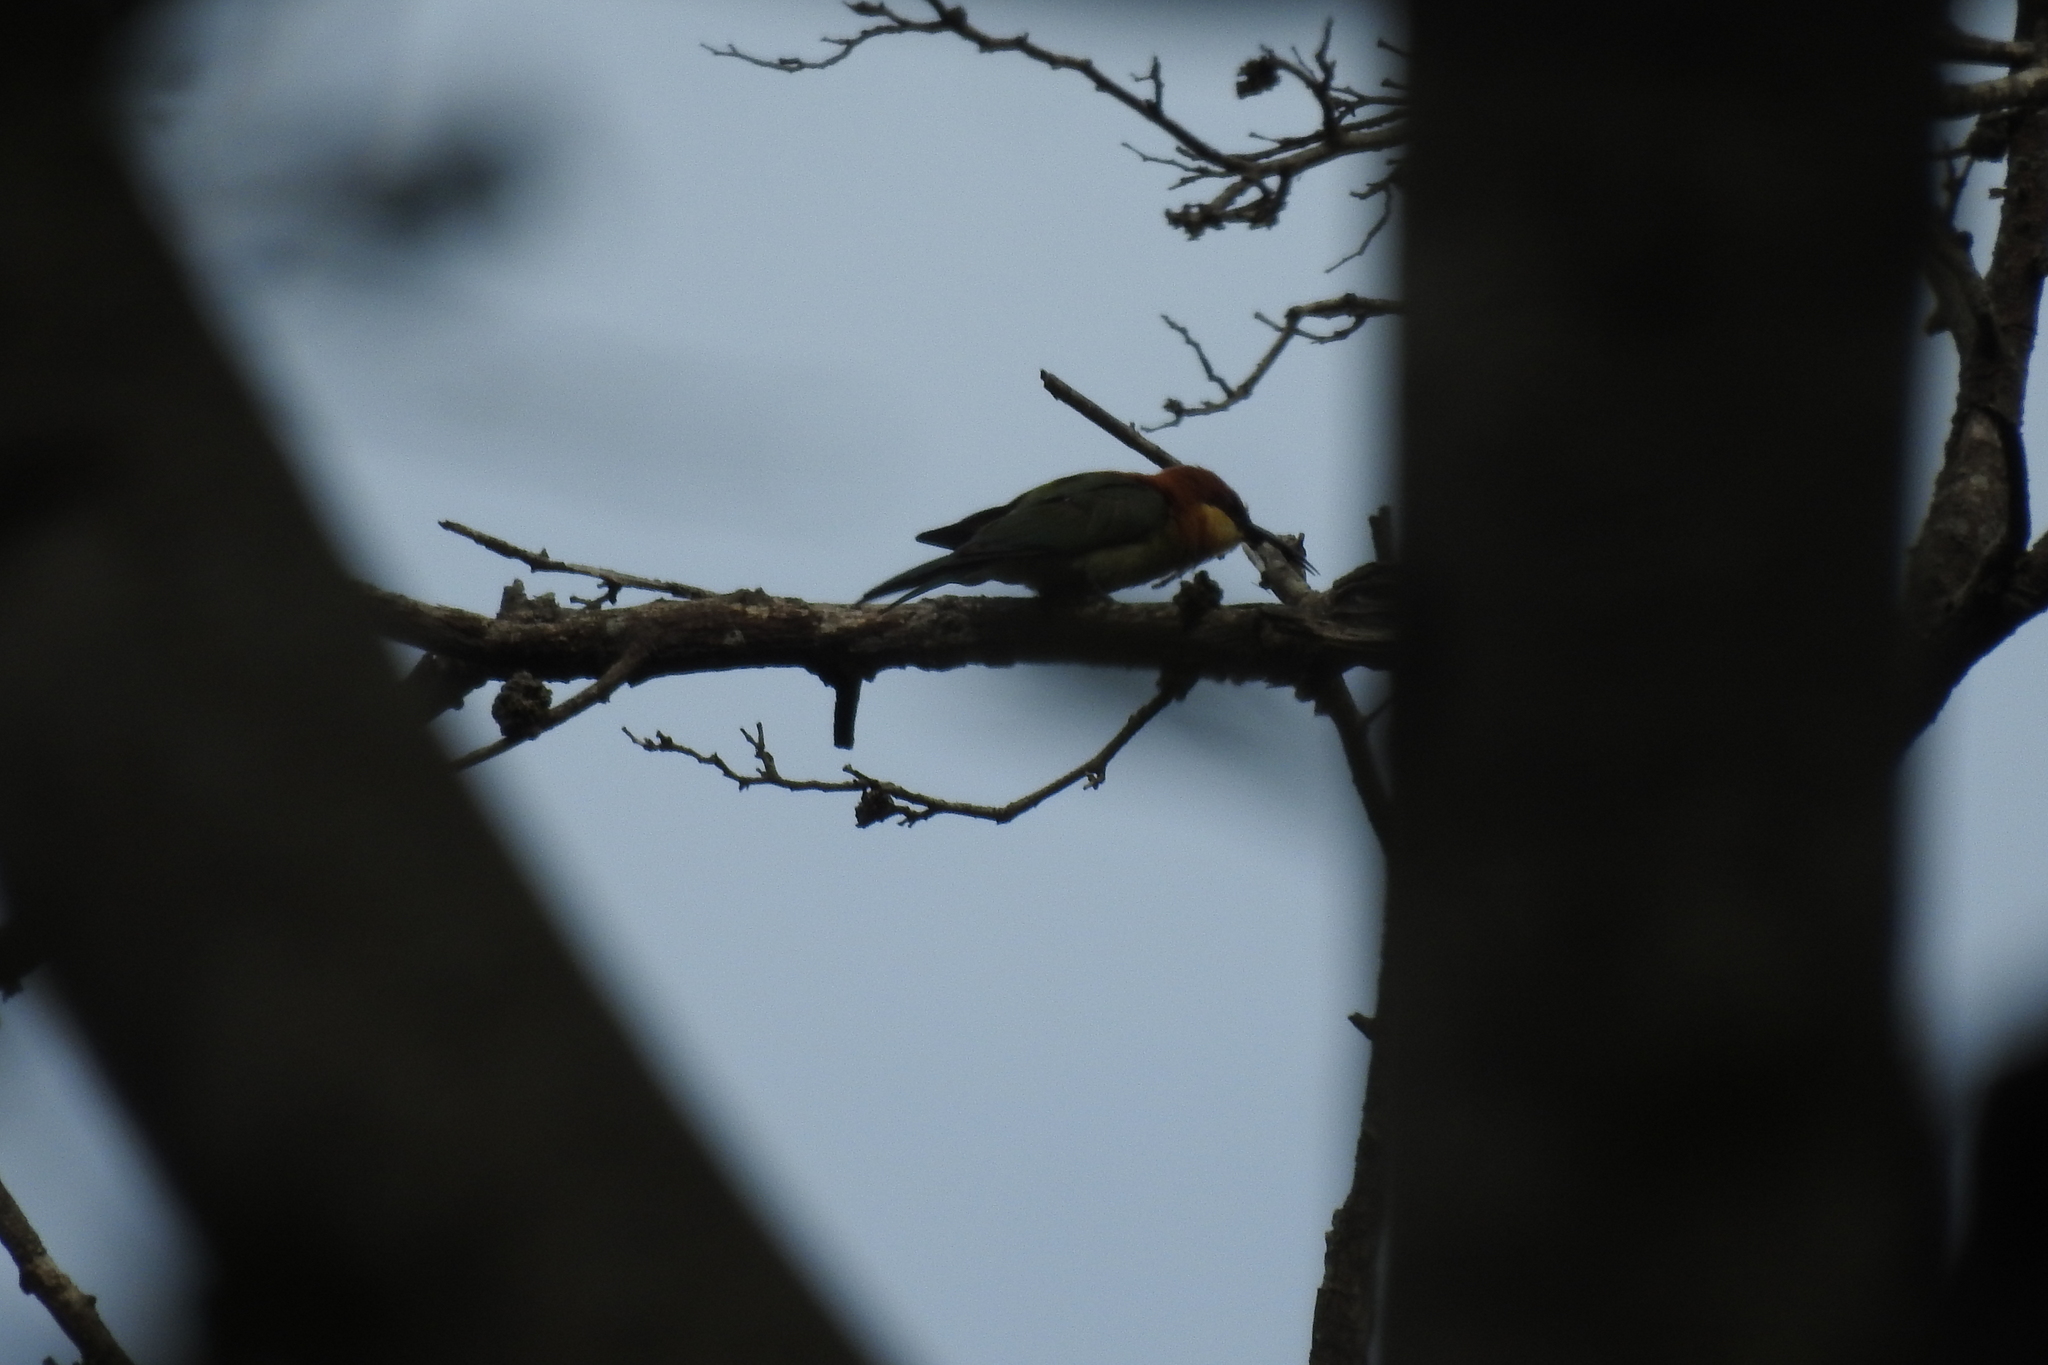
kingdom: Animalia
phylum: Chordata
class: Aves
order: Coraciiformes
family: Meropidae
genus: Merops
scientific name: Merops leschenaulti
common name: Chestnut-headed bee-eater
